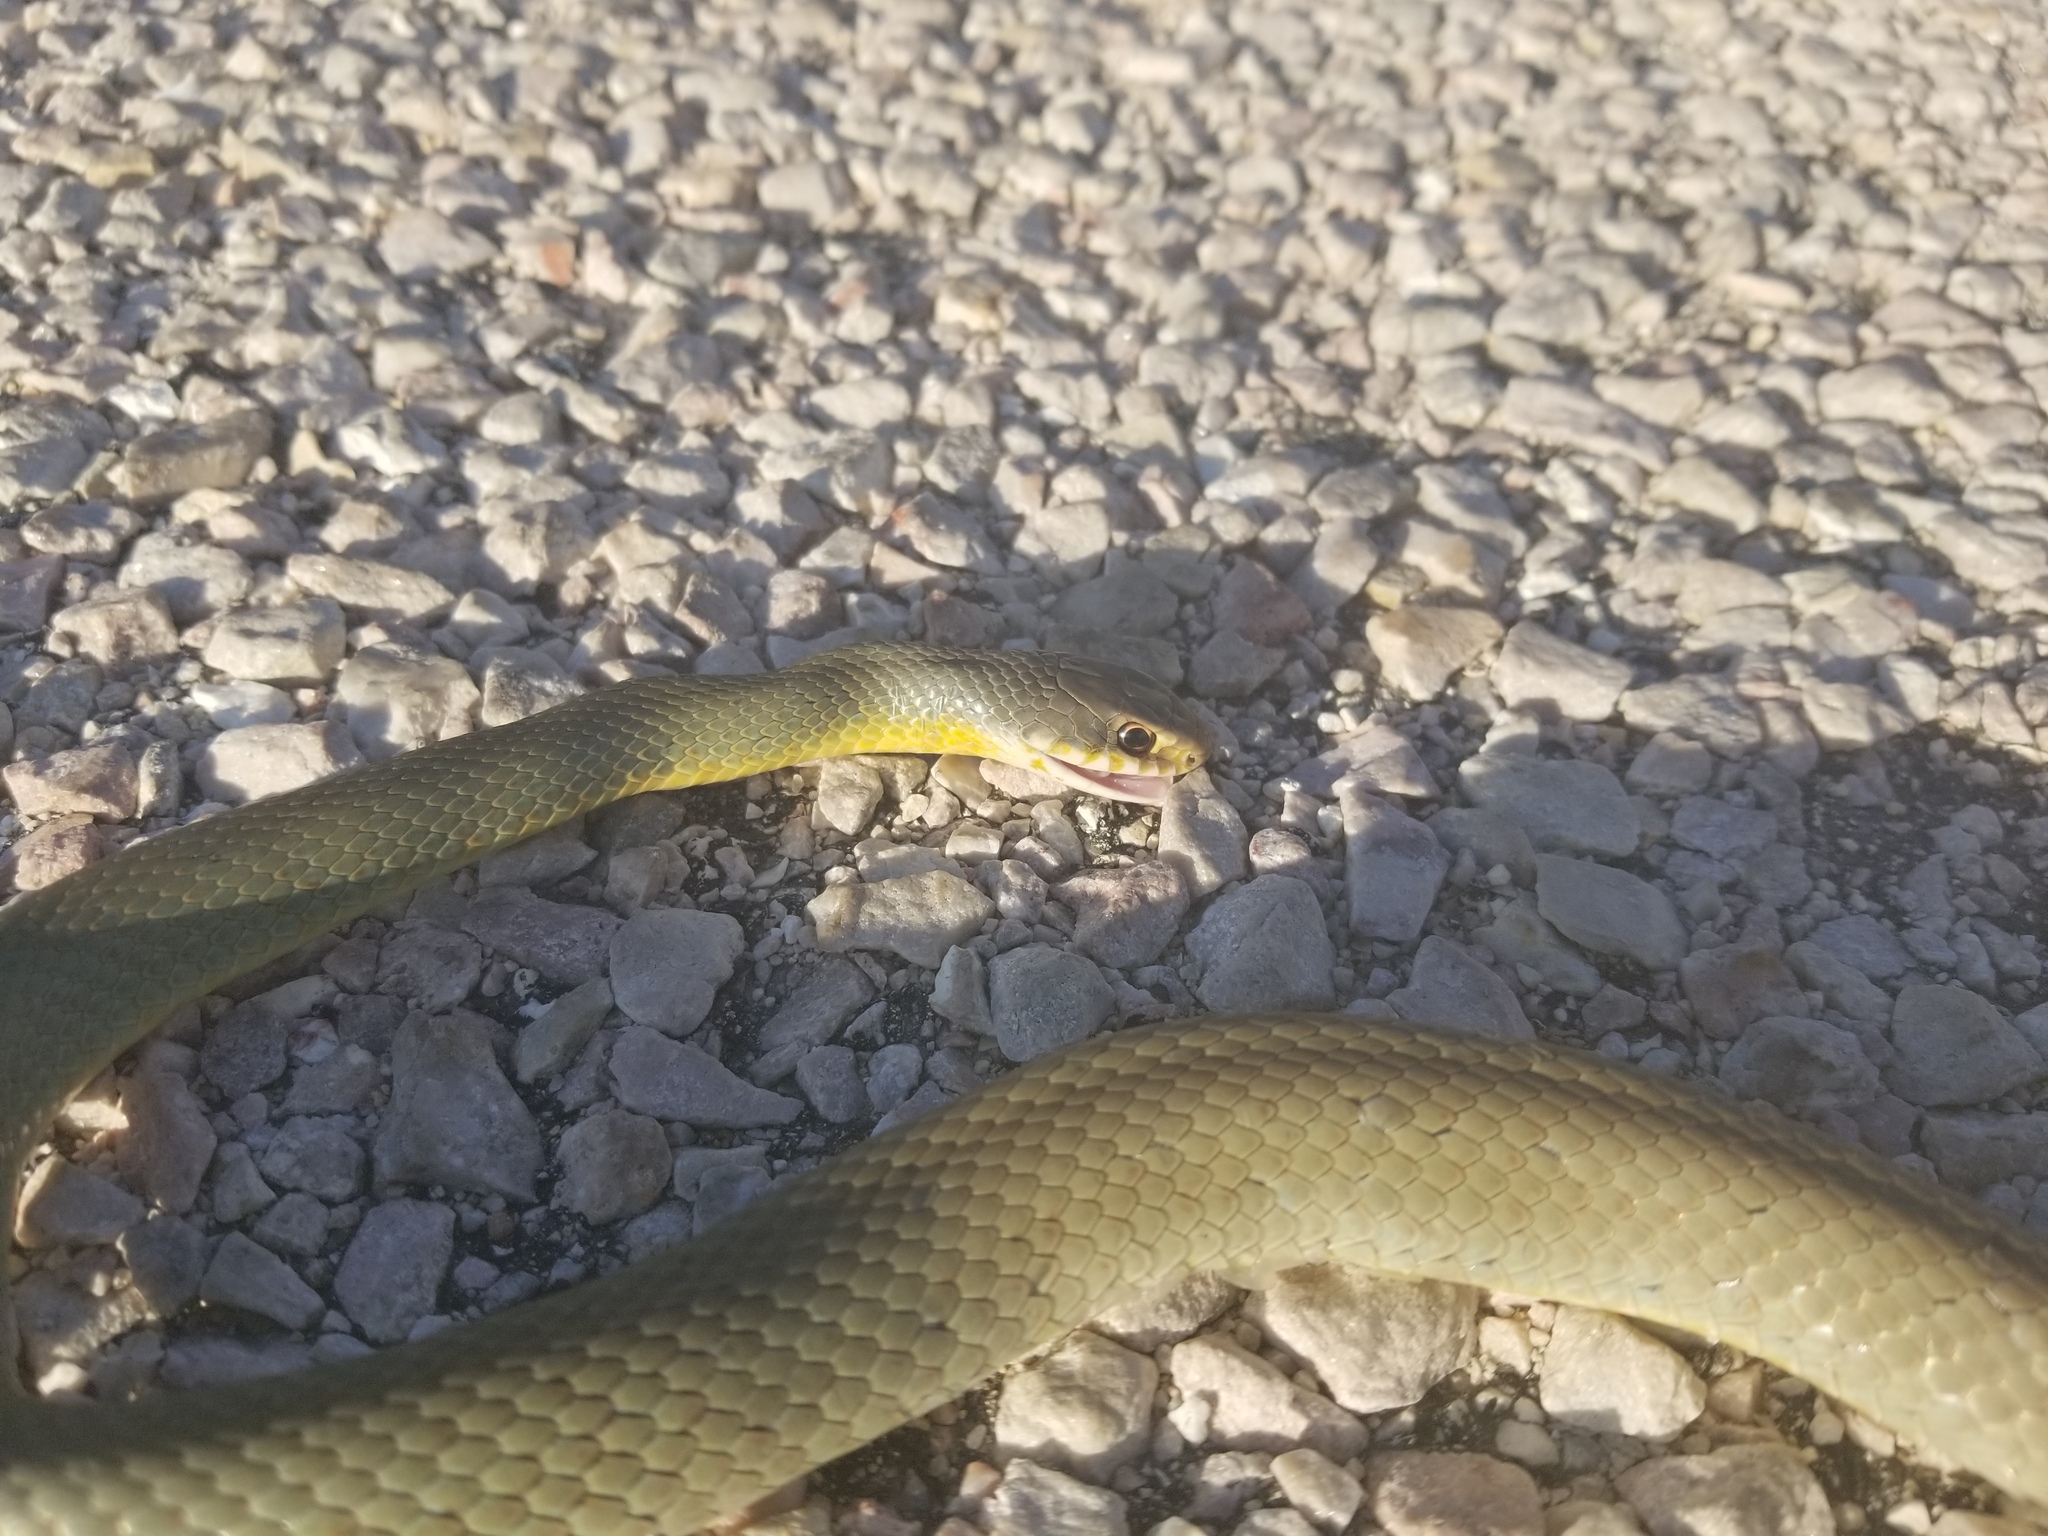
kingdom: Animalia
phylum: Chordata
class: Squamata
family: Colubridae
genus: Coluber
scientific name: Coluber constrictor
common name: Eastern racer
